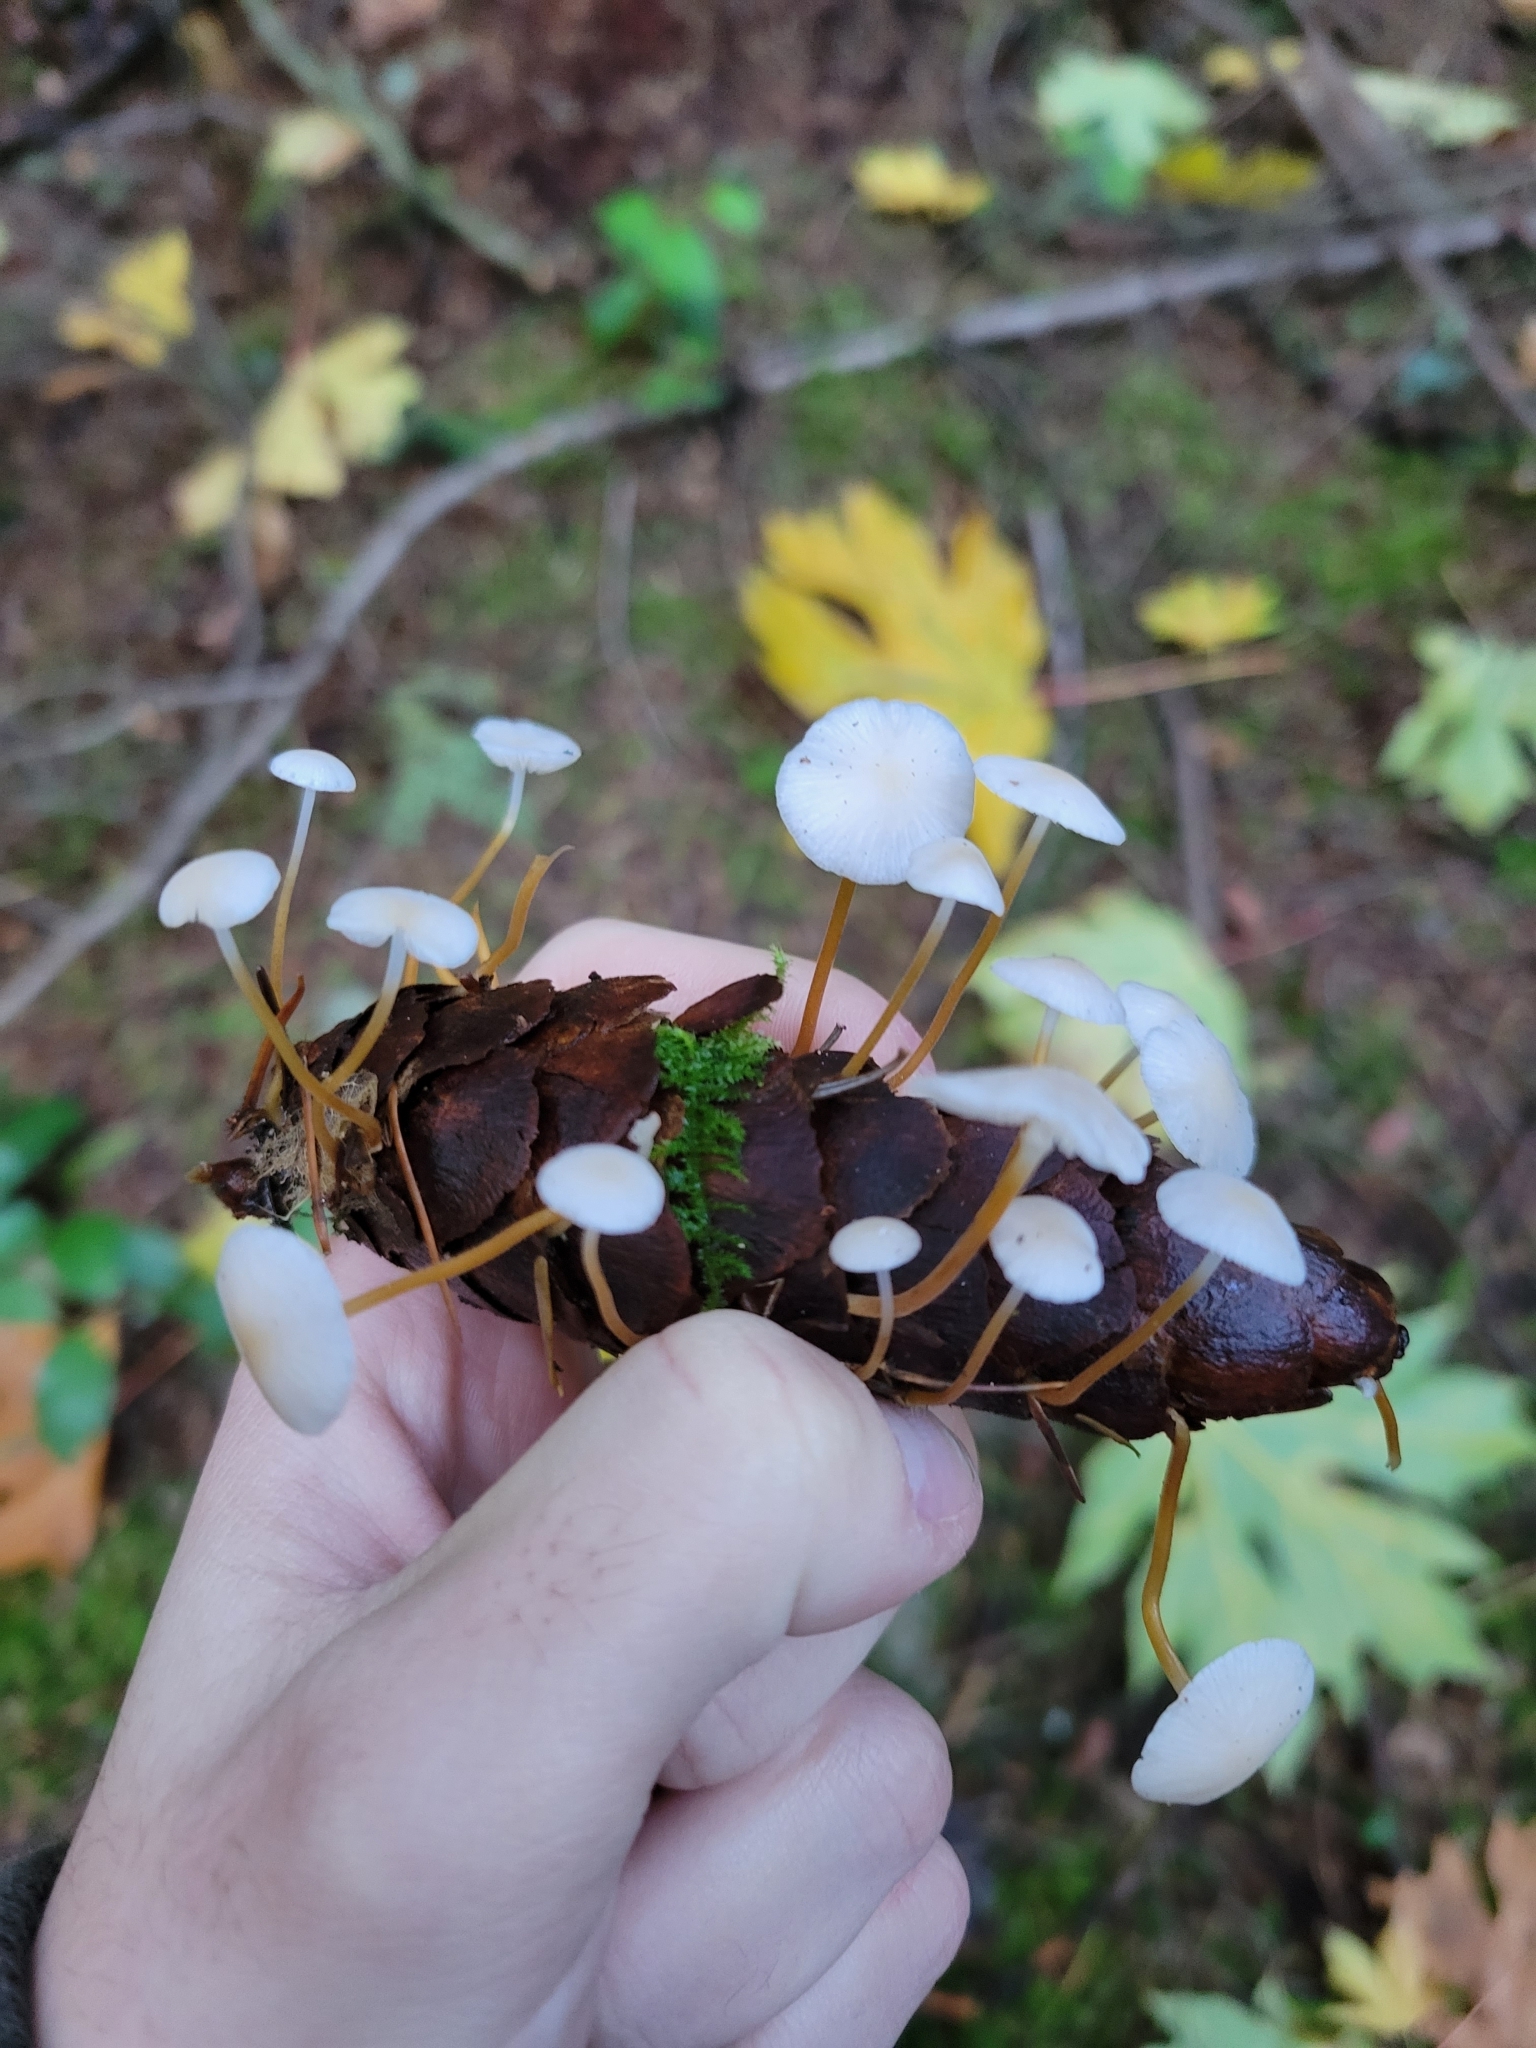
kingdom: Fungi
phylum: Basidiomycota
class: Agaricomycetes
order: Agaricales
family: Physalacriaceae
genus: Strobilurus
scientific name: Strobilurus trullisatus
